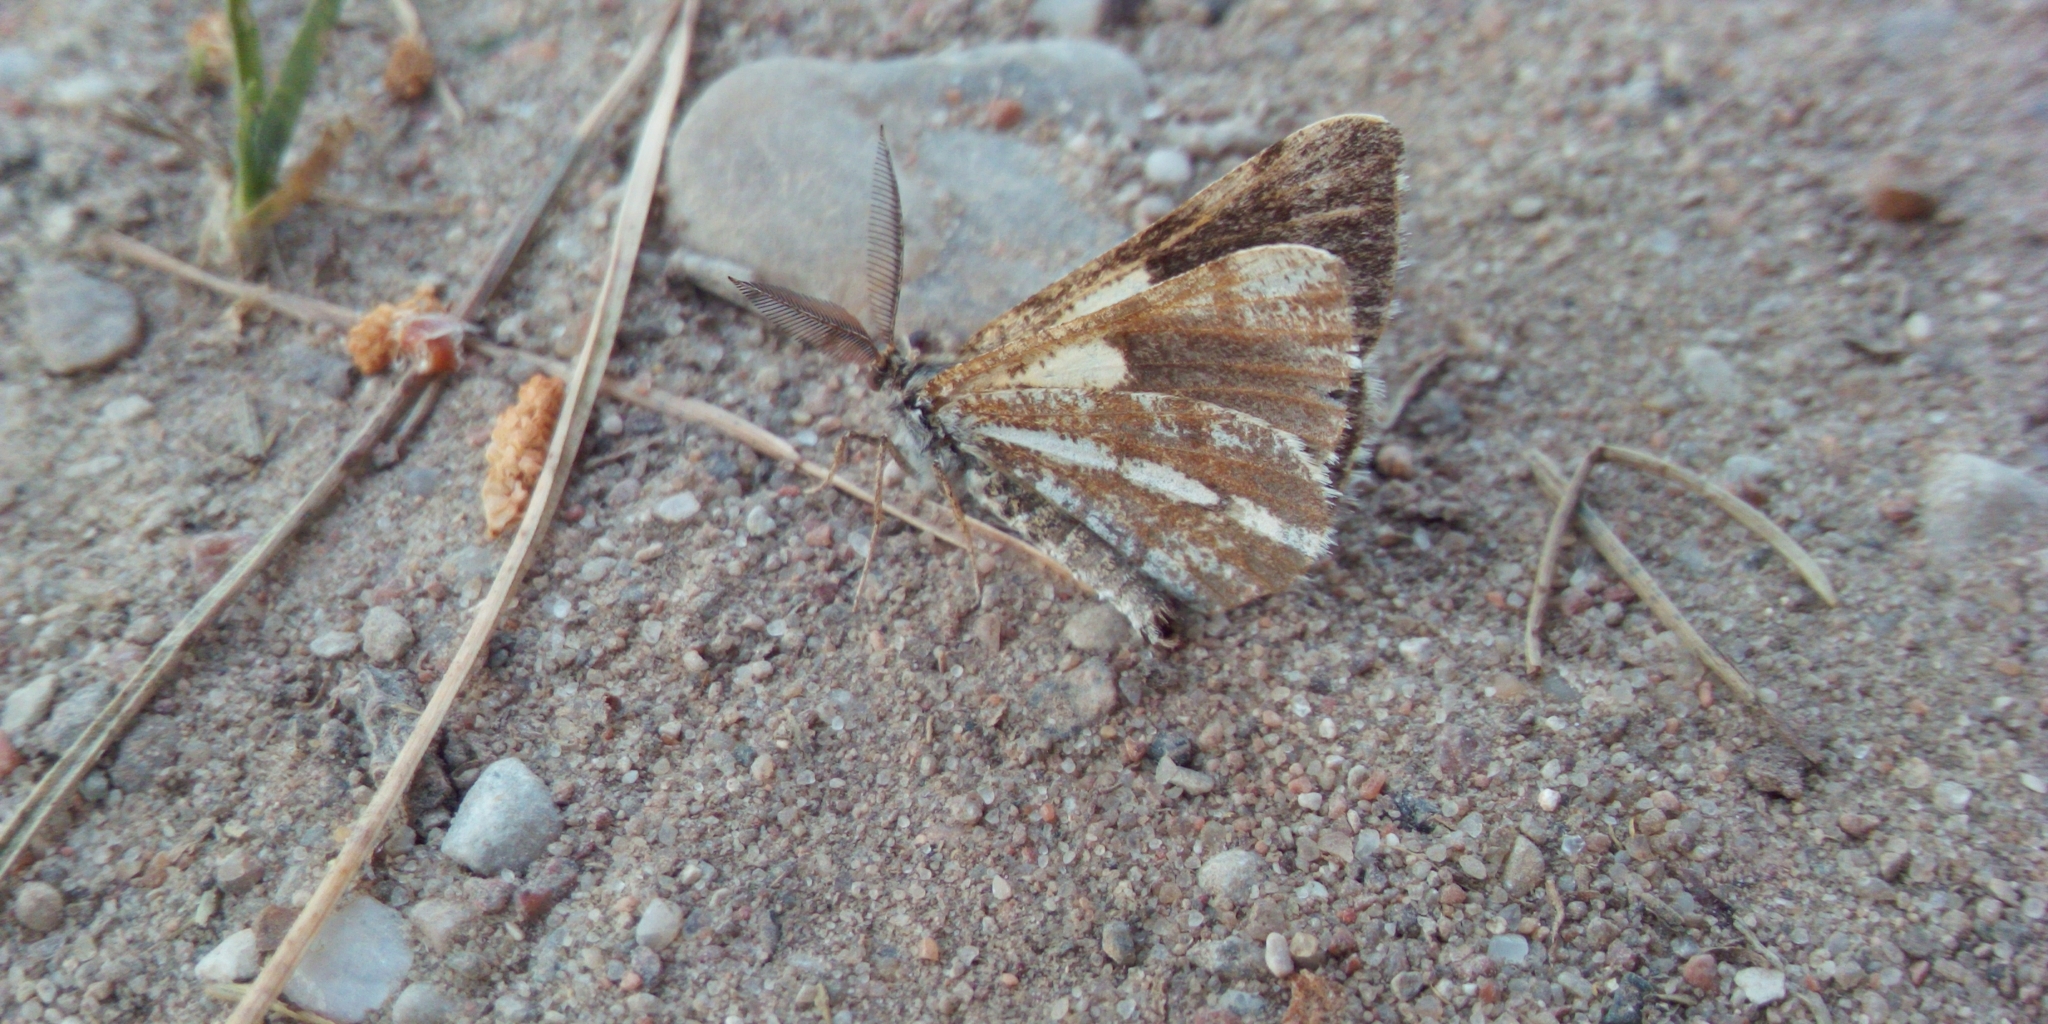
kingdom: Animalia
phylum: Arthropoda
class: Insecta
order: Lepidoptera
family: Geometridae
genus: Bupalus
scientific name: Bupalus piniaria
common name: Bordered white
